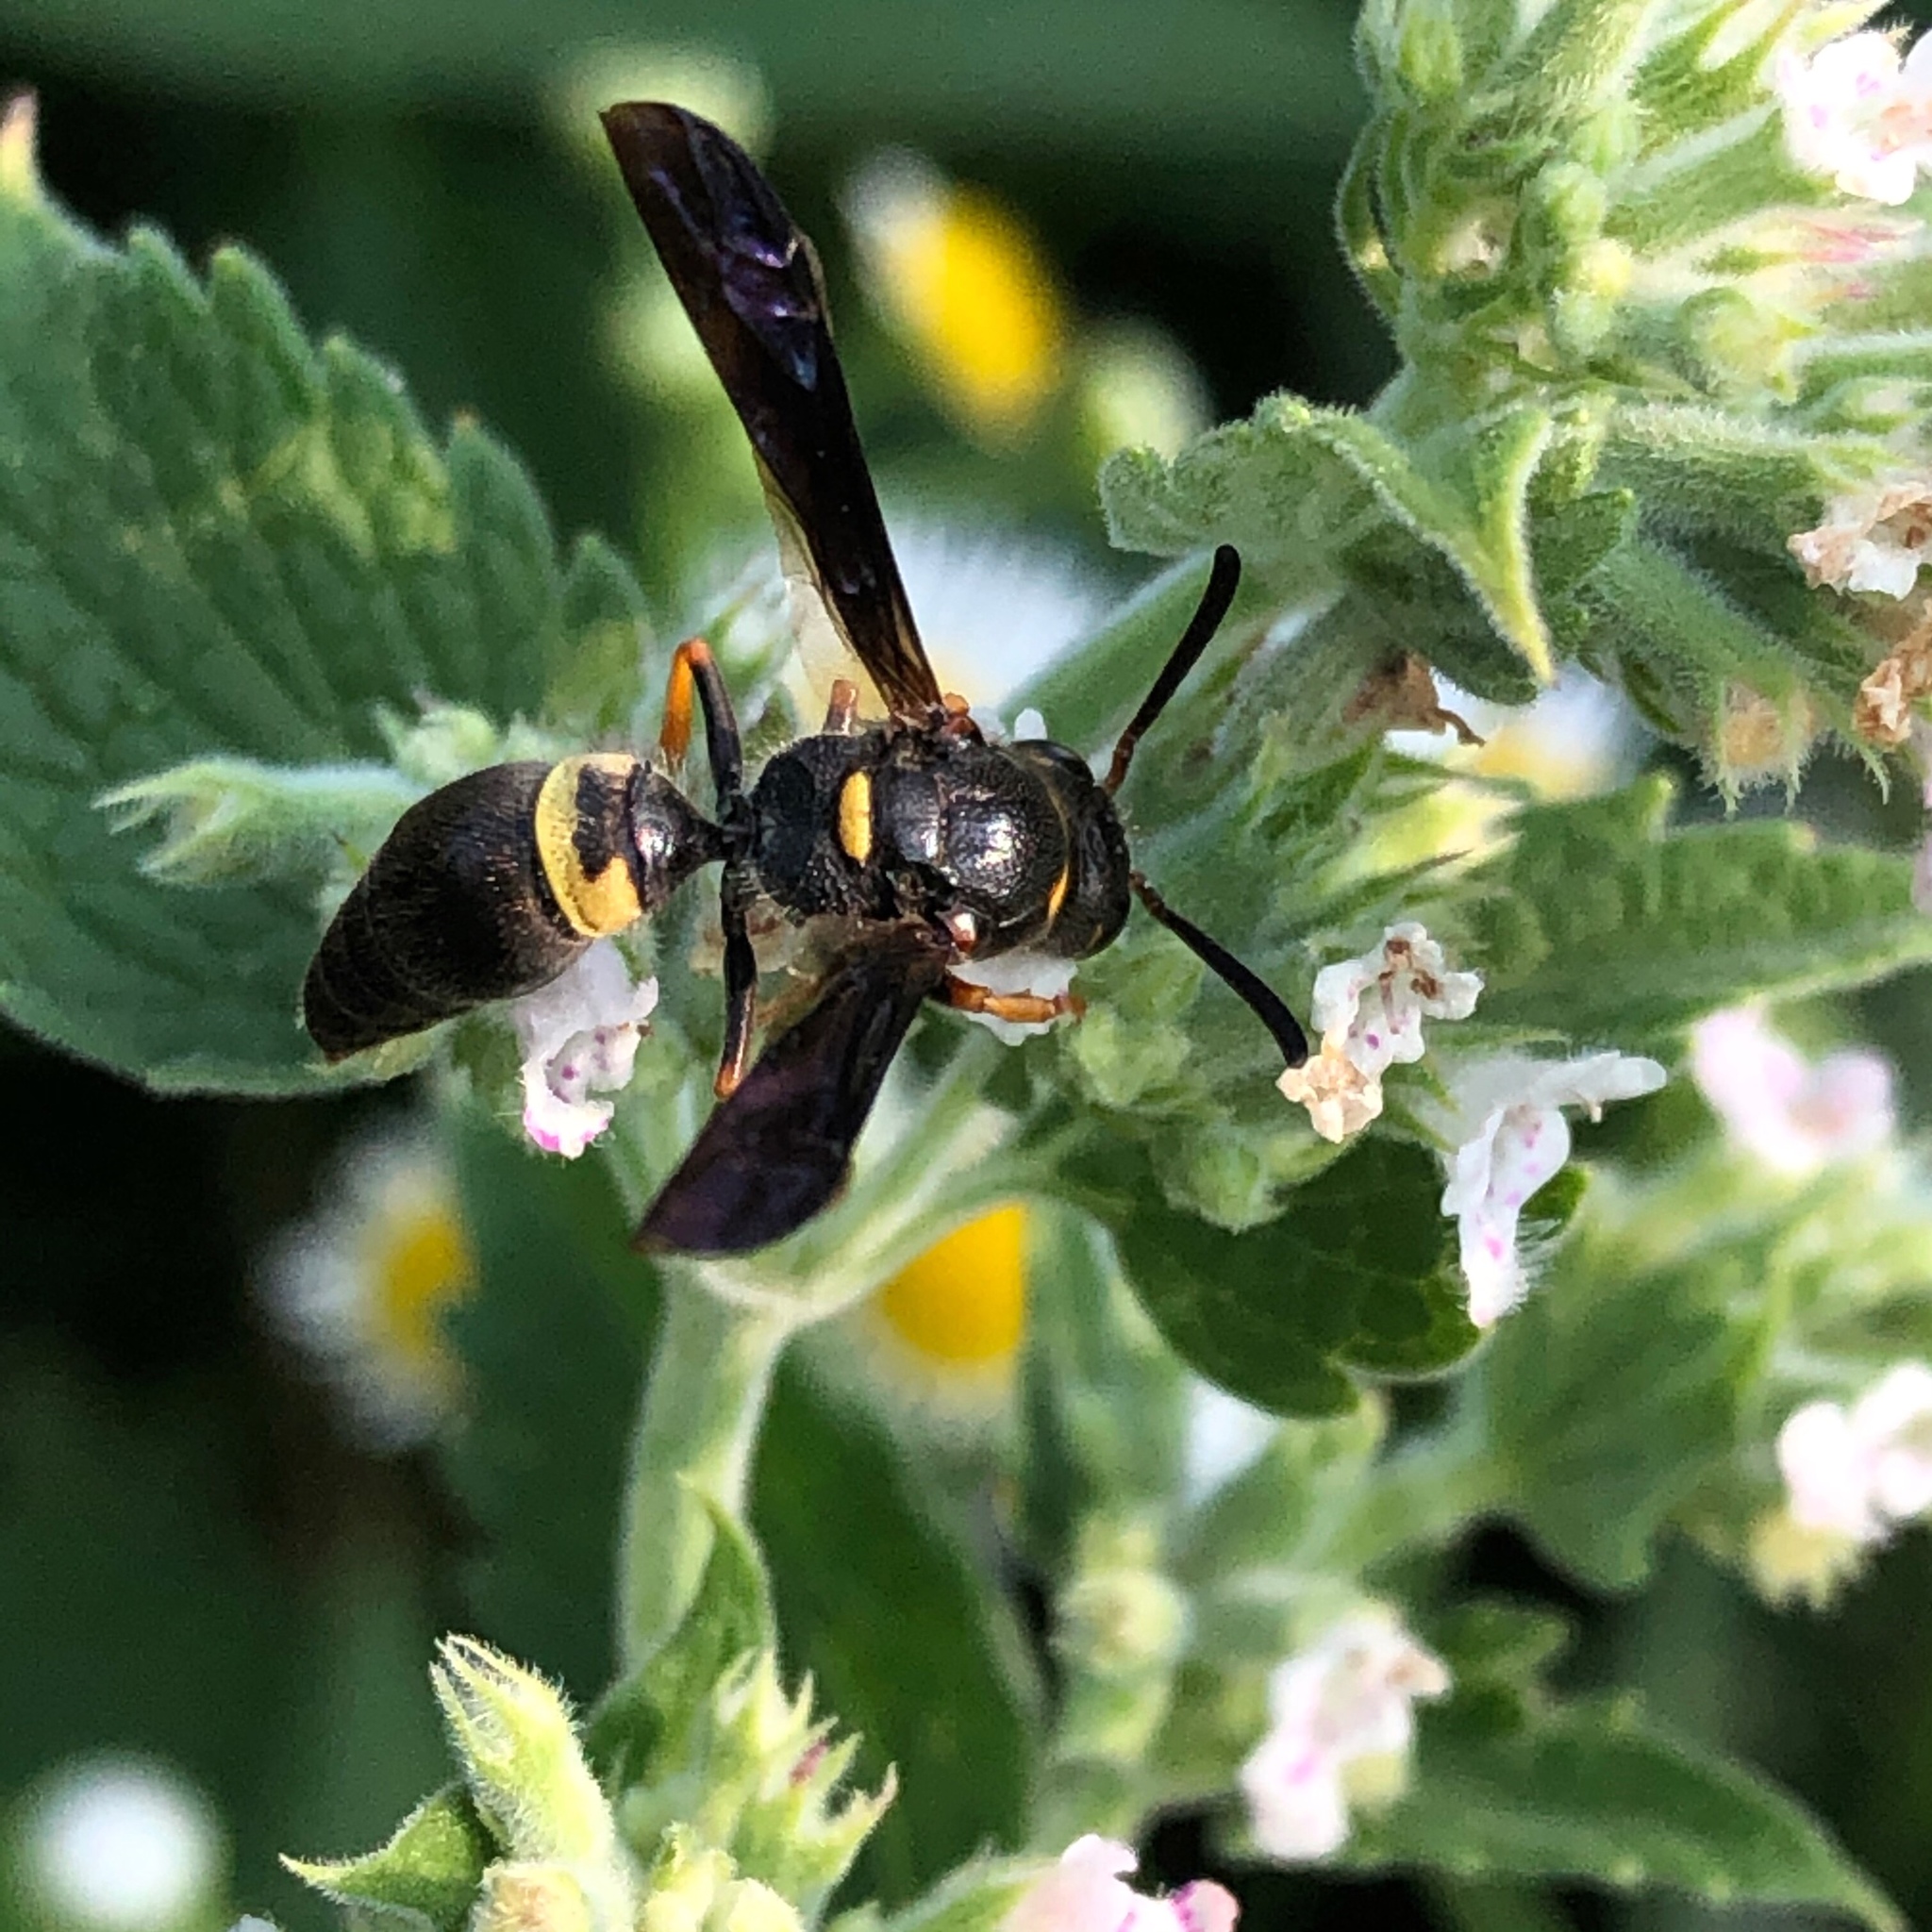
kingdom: Animalia
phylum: Arthropoda
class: Insecta
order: Hymenoptera
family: Vespidae
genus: Ancistrocerus
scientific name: Ancistrocerus unifasciatus
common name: One-banded mason wasp
